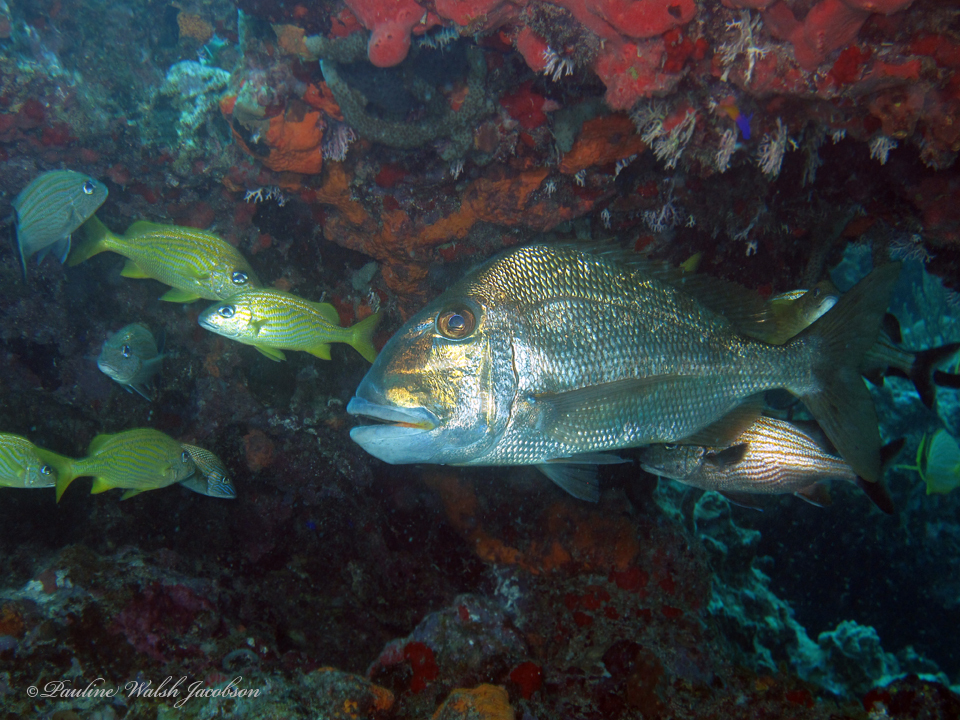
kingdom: Animalia
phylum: Chordata
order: Perciformes
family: Sparidae
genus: Calamus
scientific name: Calamus bajonado
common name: Jolthead porgy
